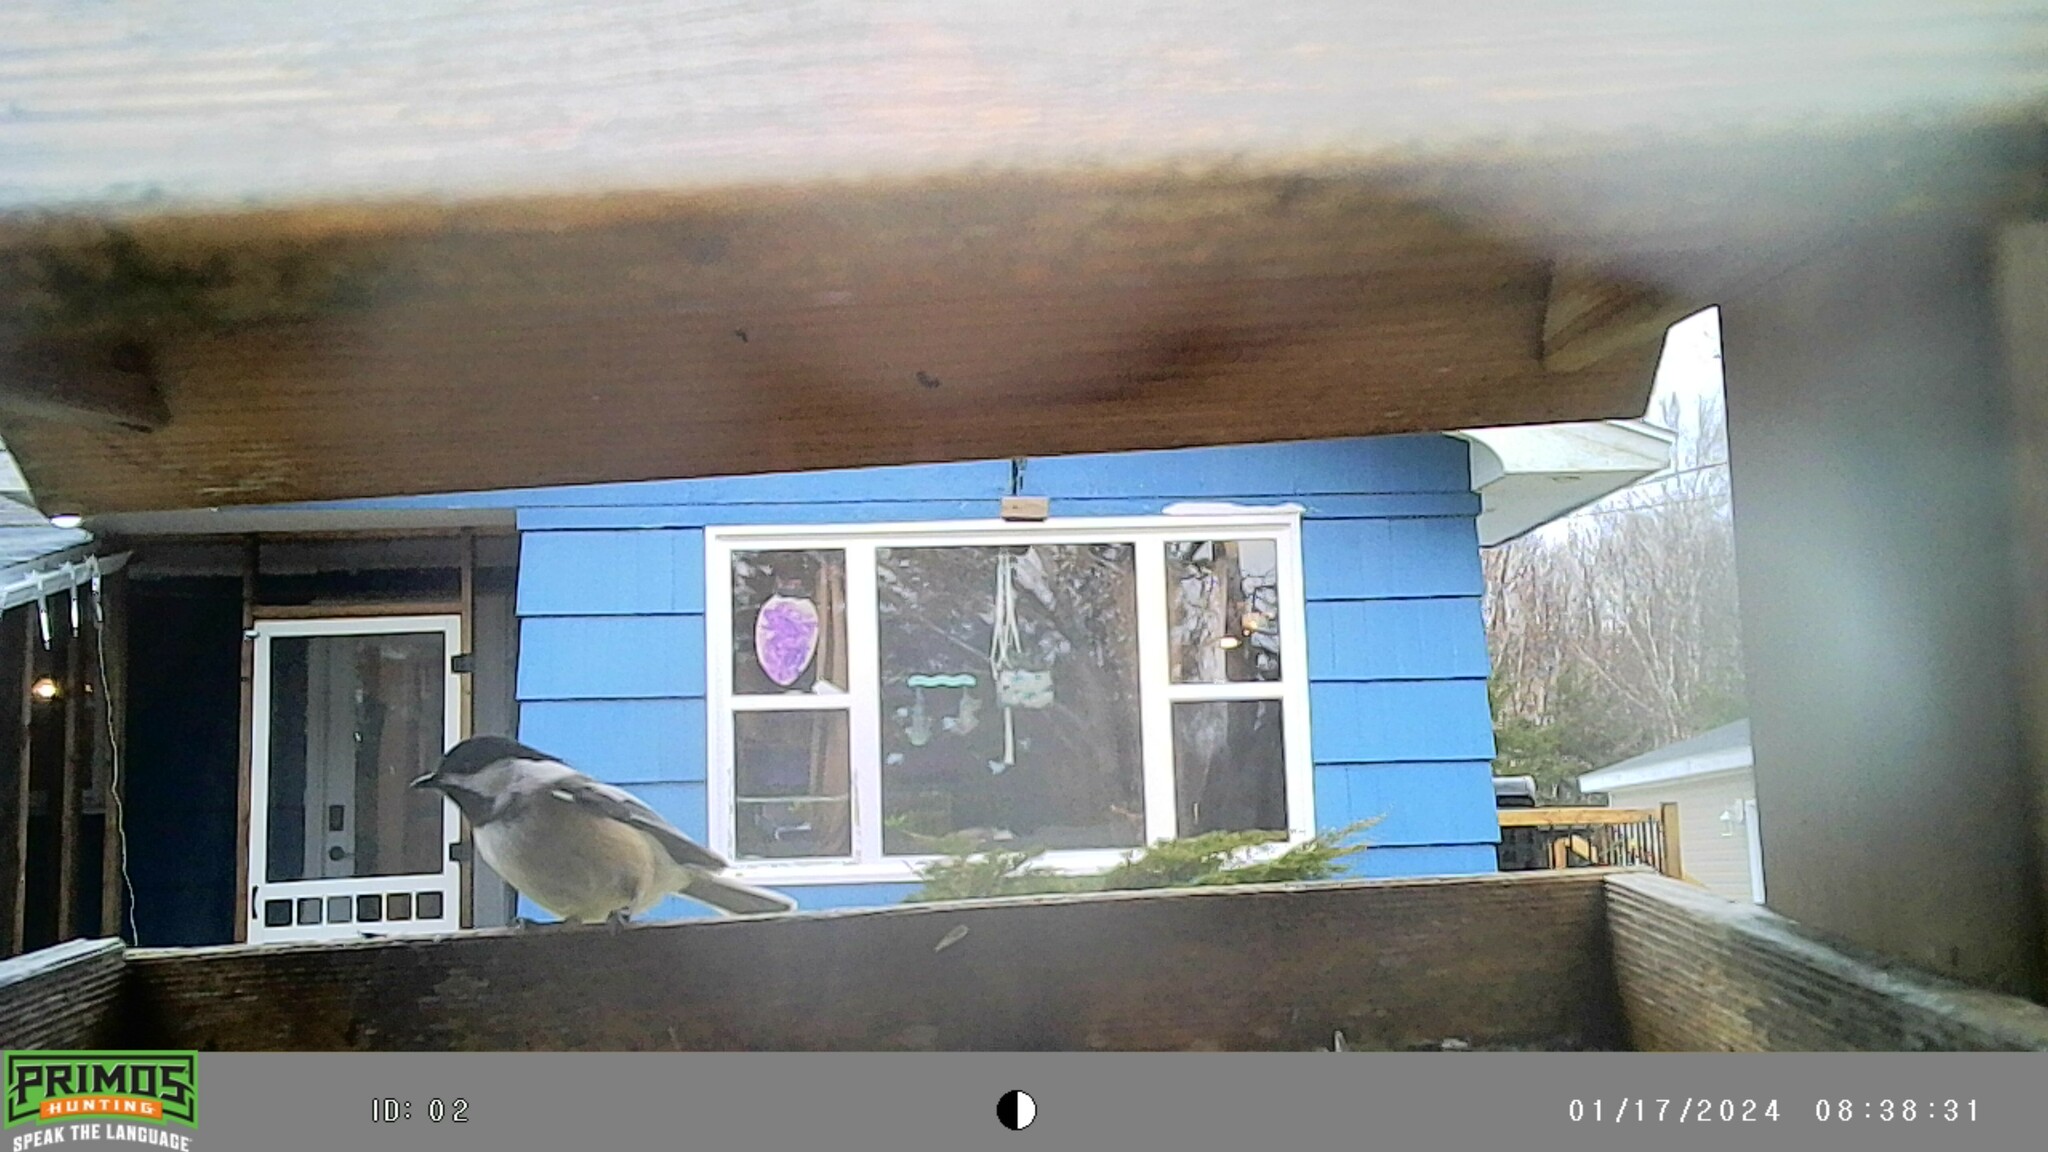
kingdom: Animalia
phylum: Chordata
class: Aves
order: Passeriformes
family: Paridae
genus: Poecile
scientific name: Poecile atricapillus
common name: Black-capped chickadee
